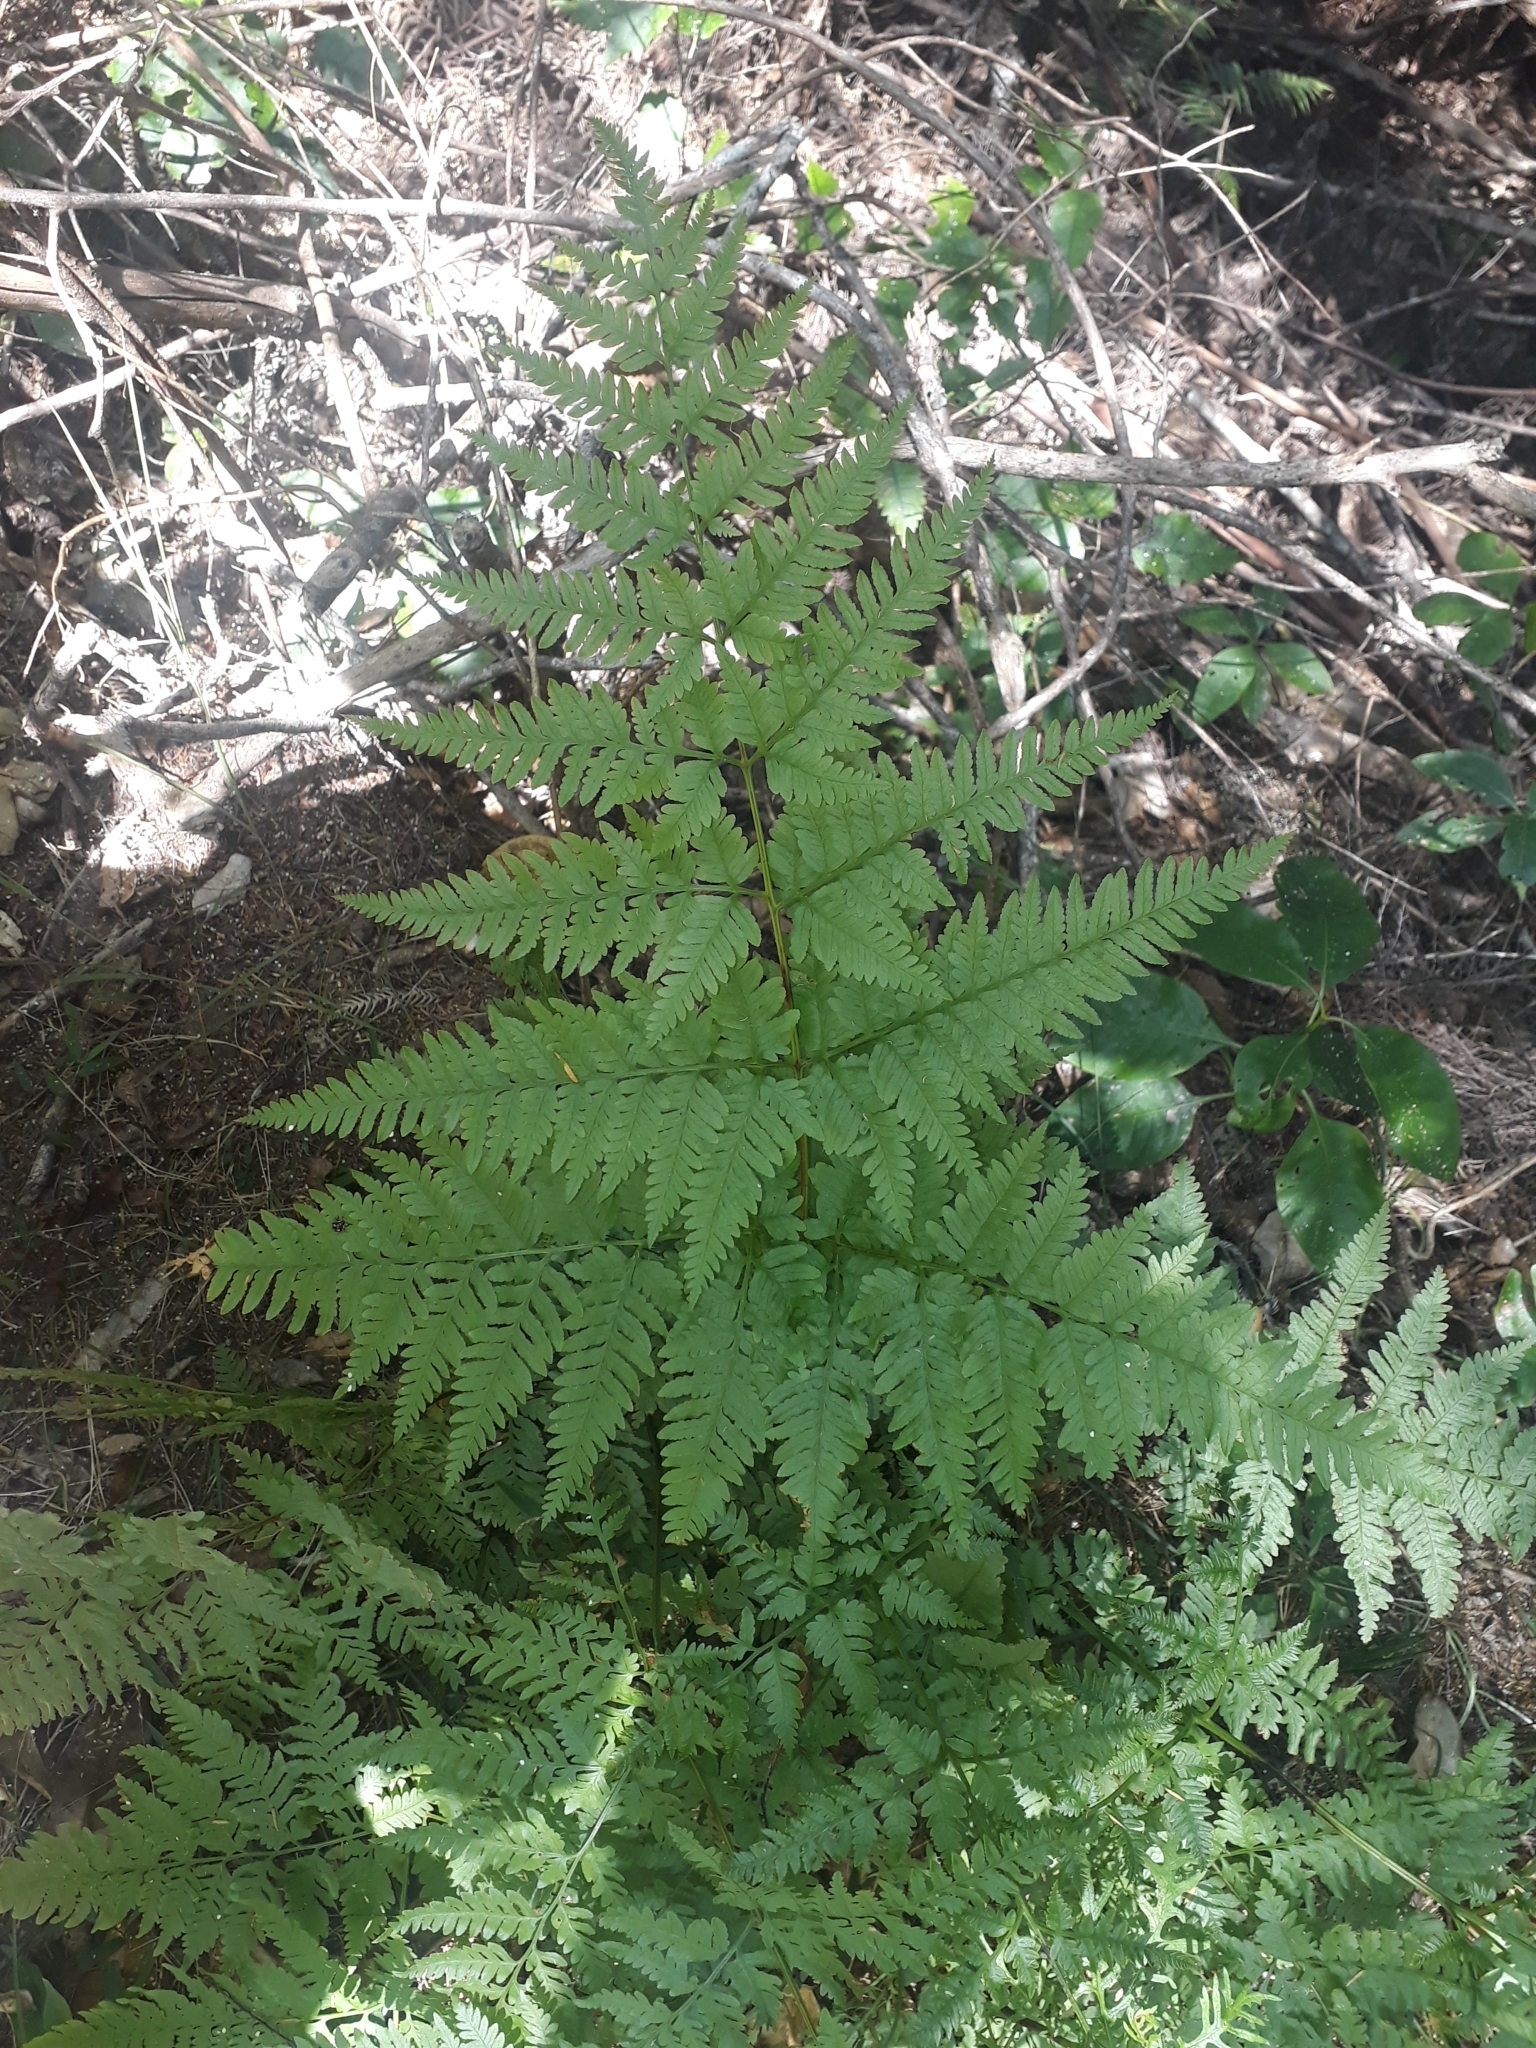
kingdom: Plantae
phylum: Tracheophyta
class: Polypodiopsida
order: Polypodiales
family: Pteridaceae
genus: Pteris
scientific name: Pteris tremula
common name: Australian brake
